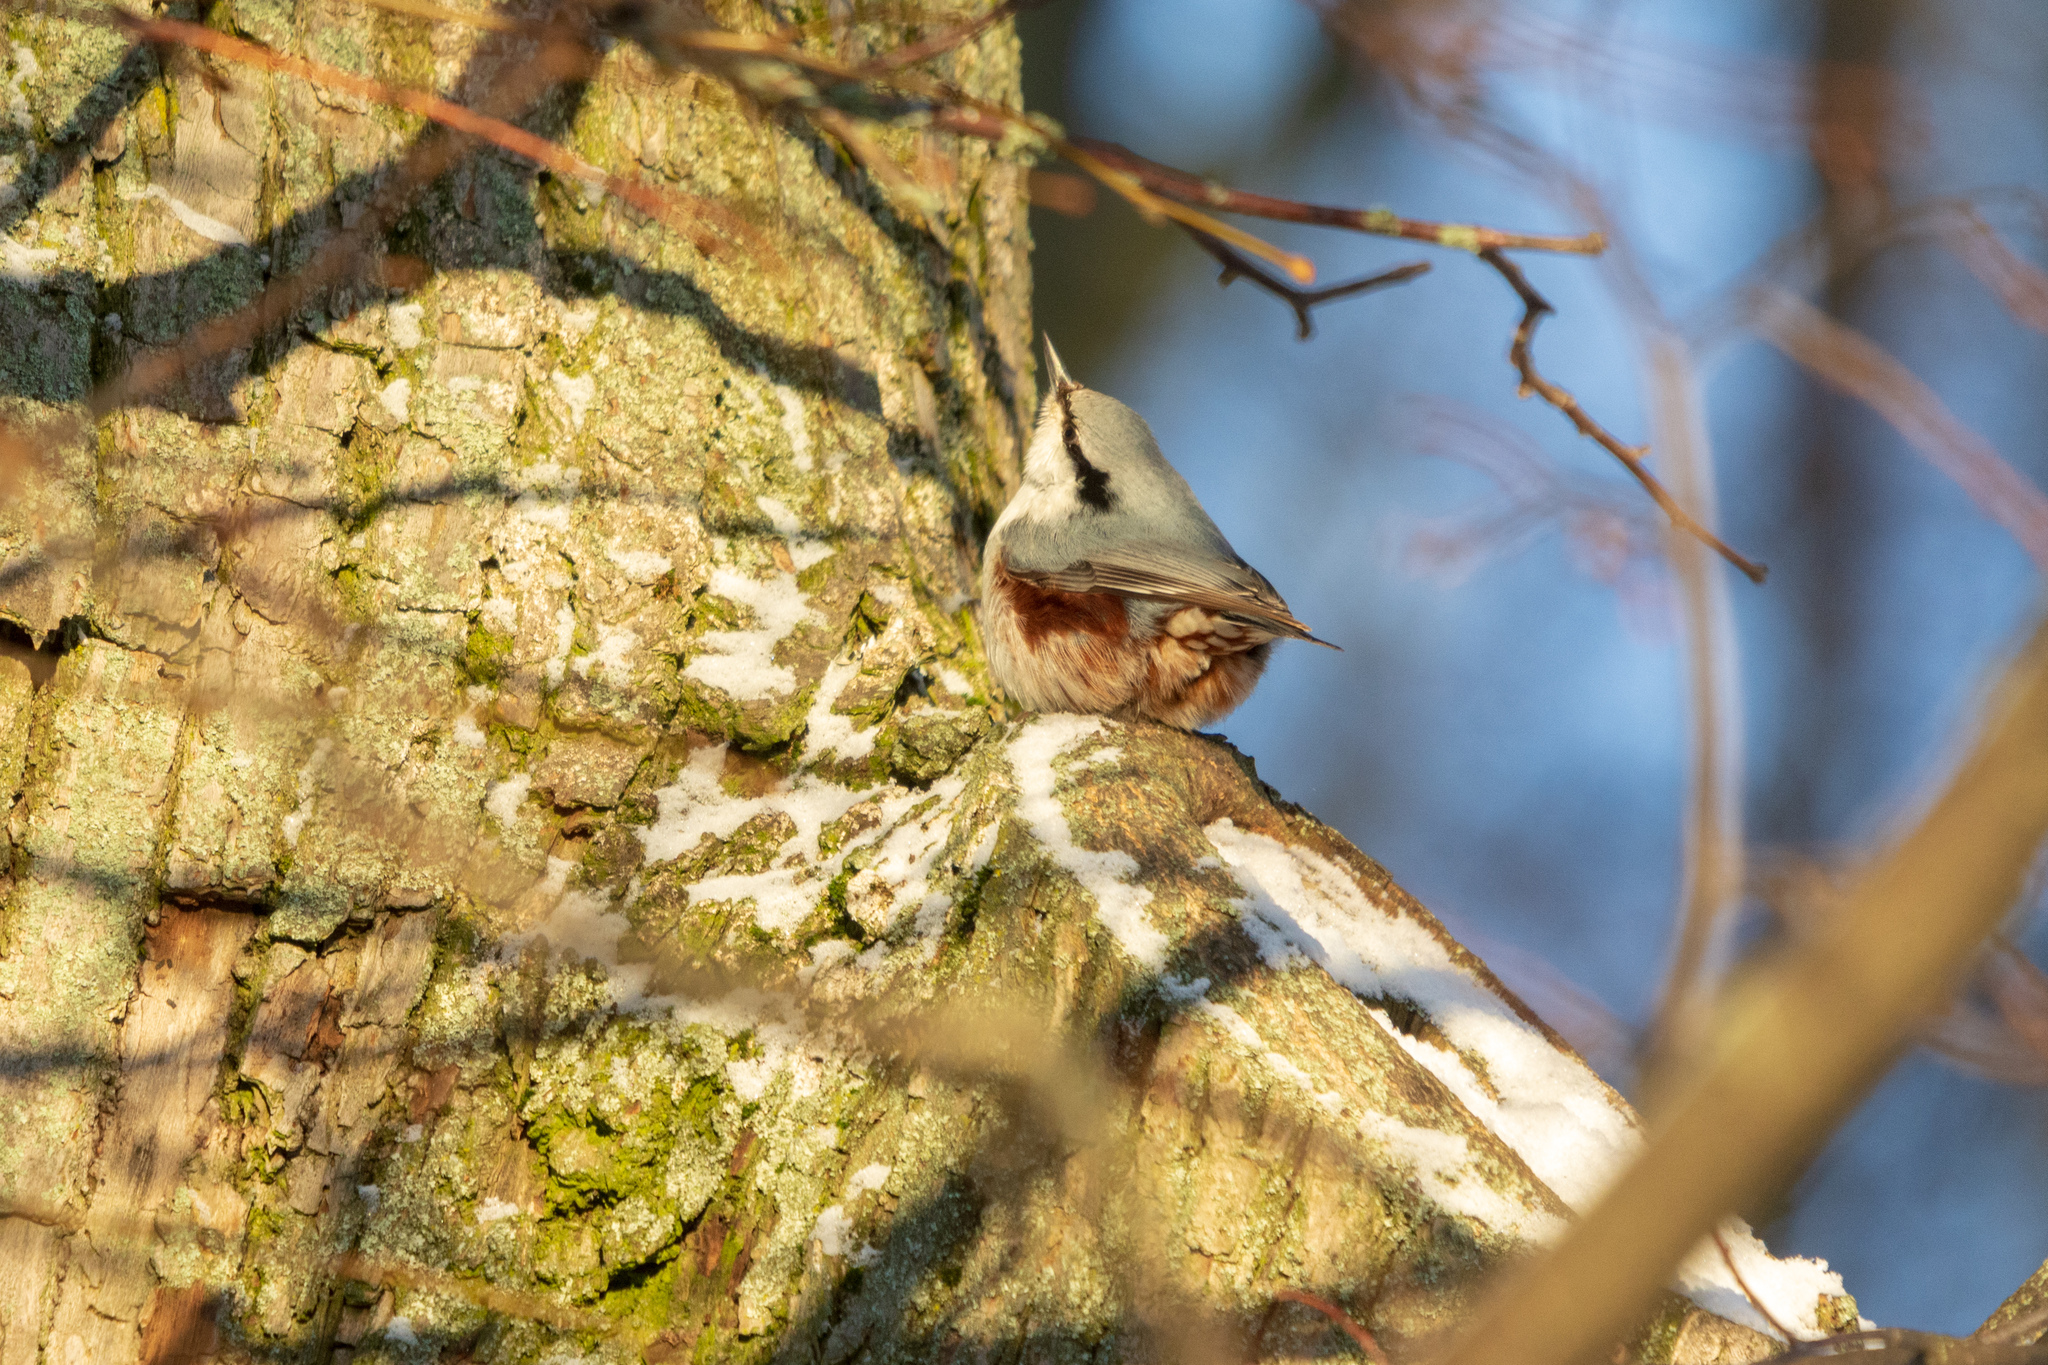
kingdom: Animalia
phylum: Chordata
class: Aves
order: Passeriformes
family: Sittidae
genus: Sitta
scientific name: Sitta europaea
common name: Eurasian nuthatch
